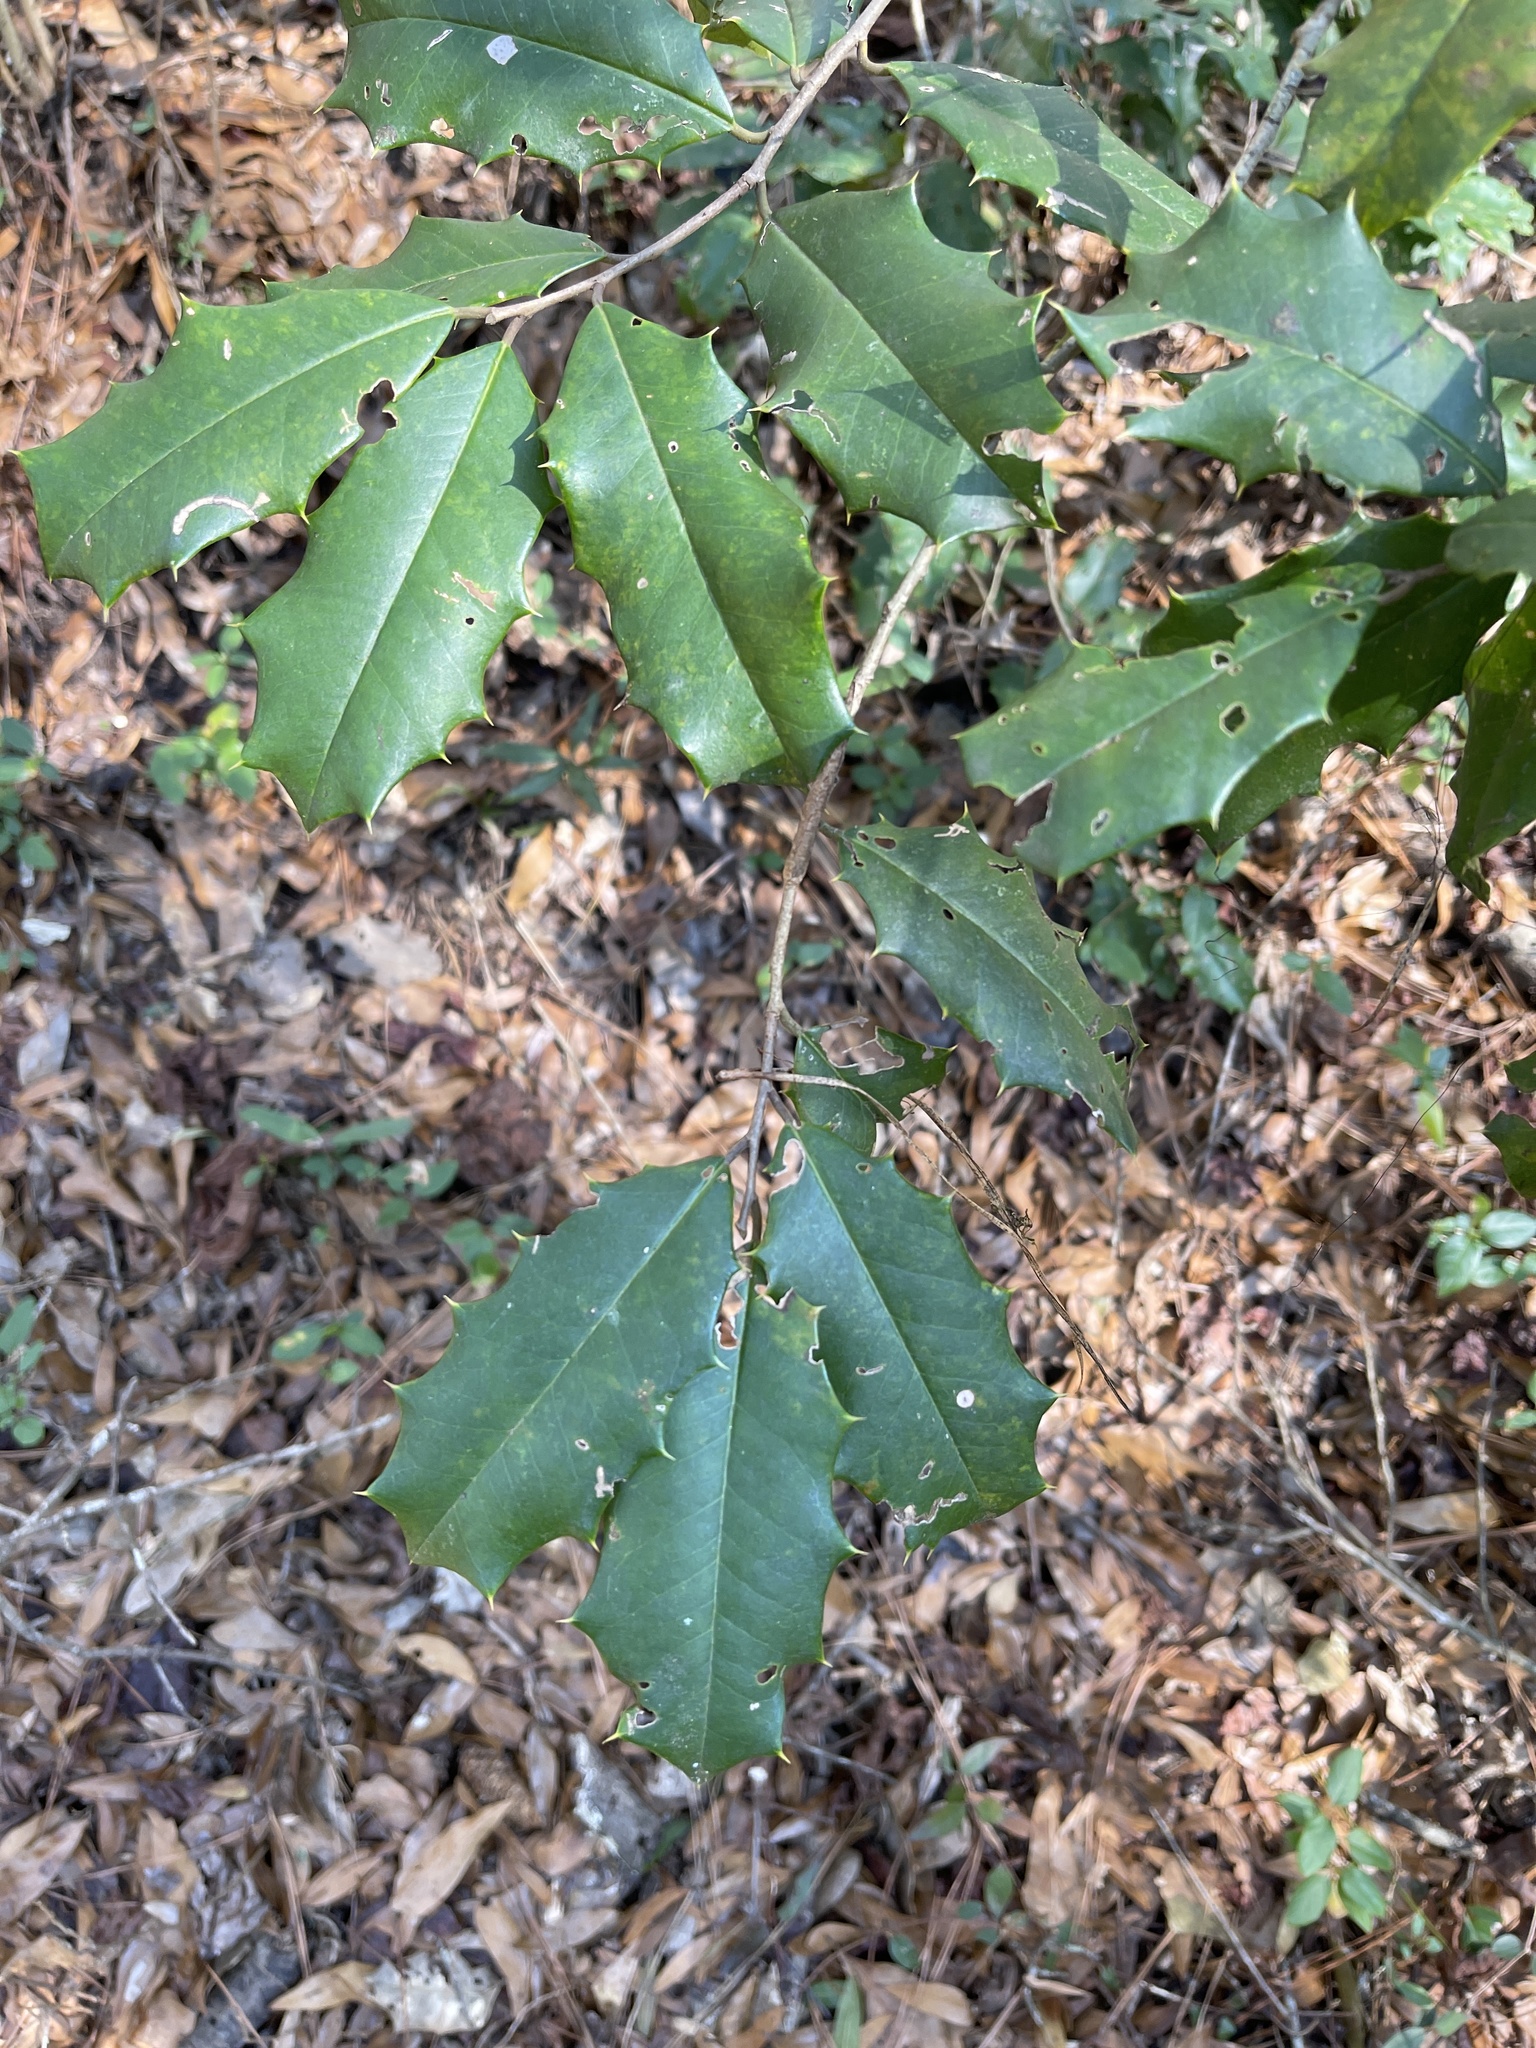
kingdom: Plantae
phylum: Tracheophyta
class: Magnoliopsida
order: Aquifoliales
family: Aquifoliaceae
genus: Ilex
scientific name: Ilex opaca
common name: American holly
